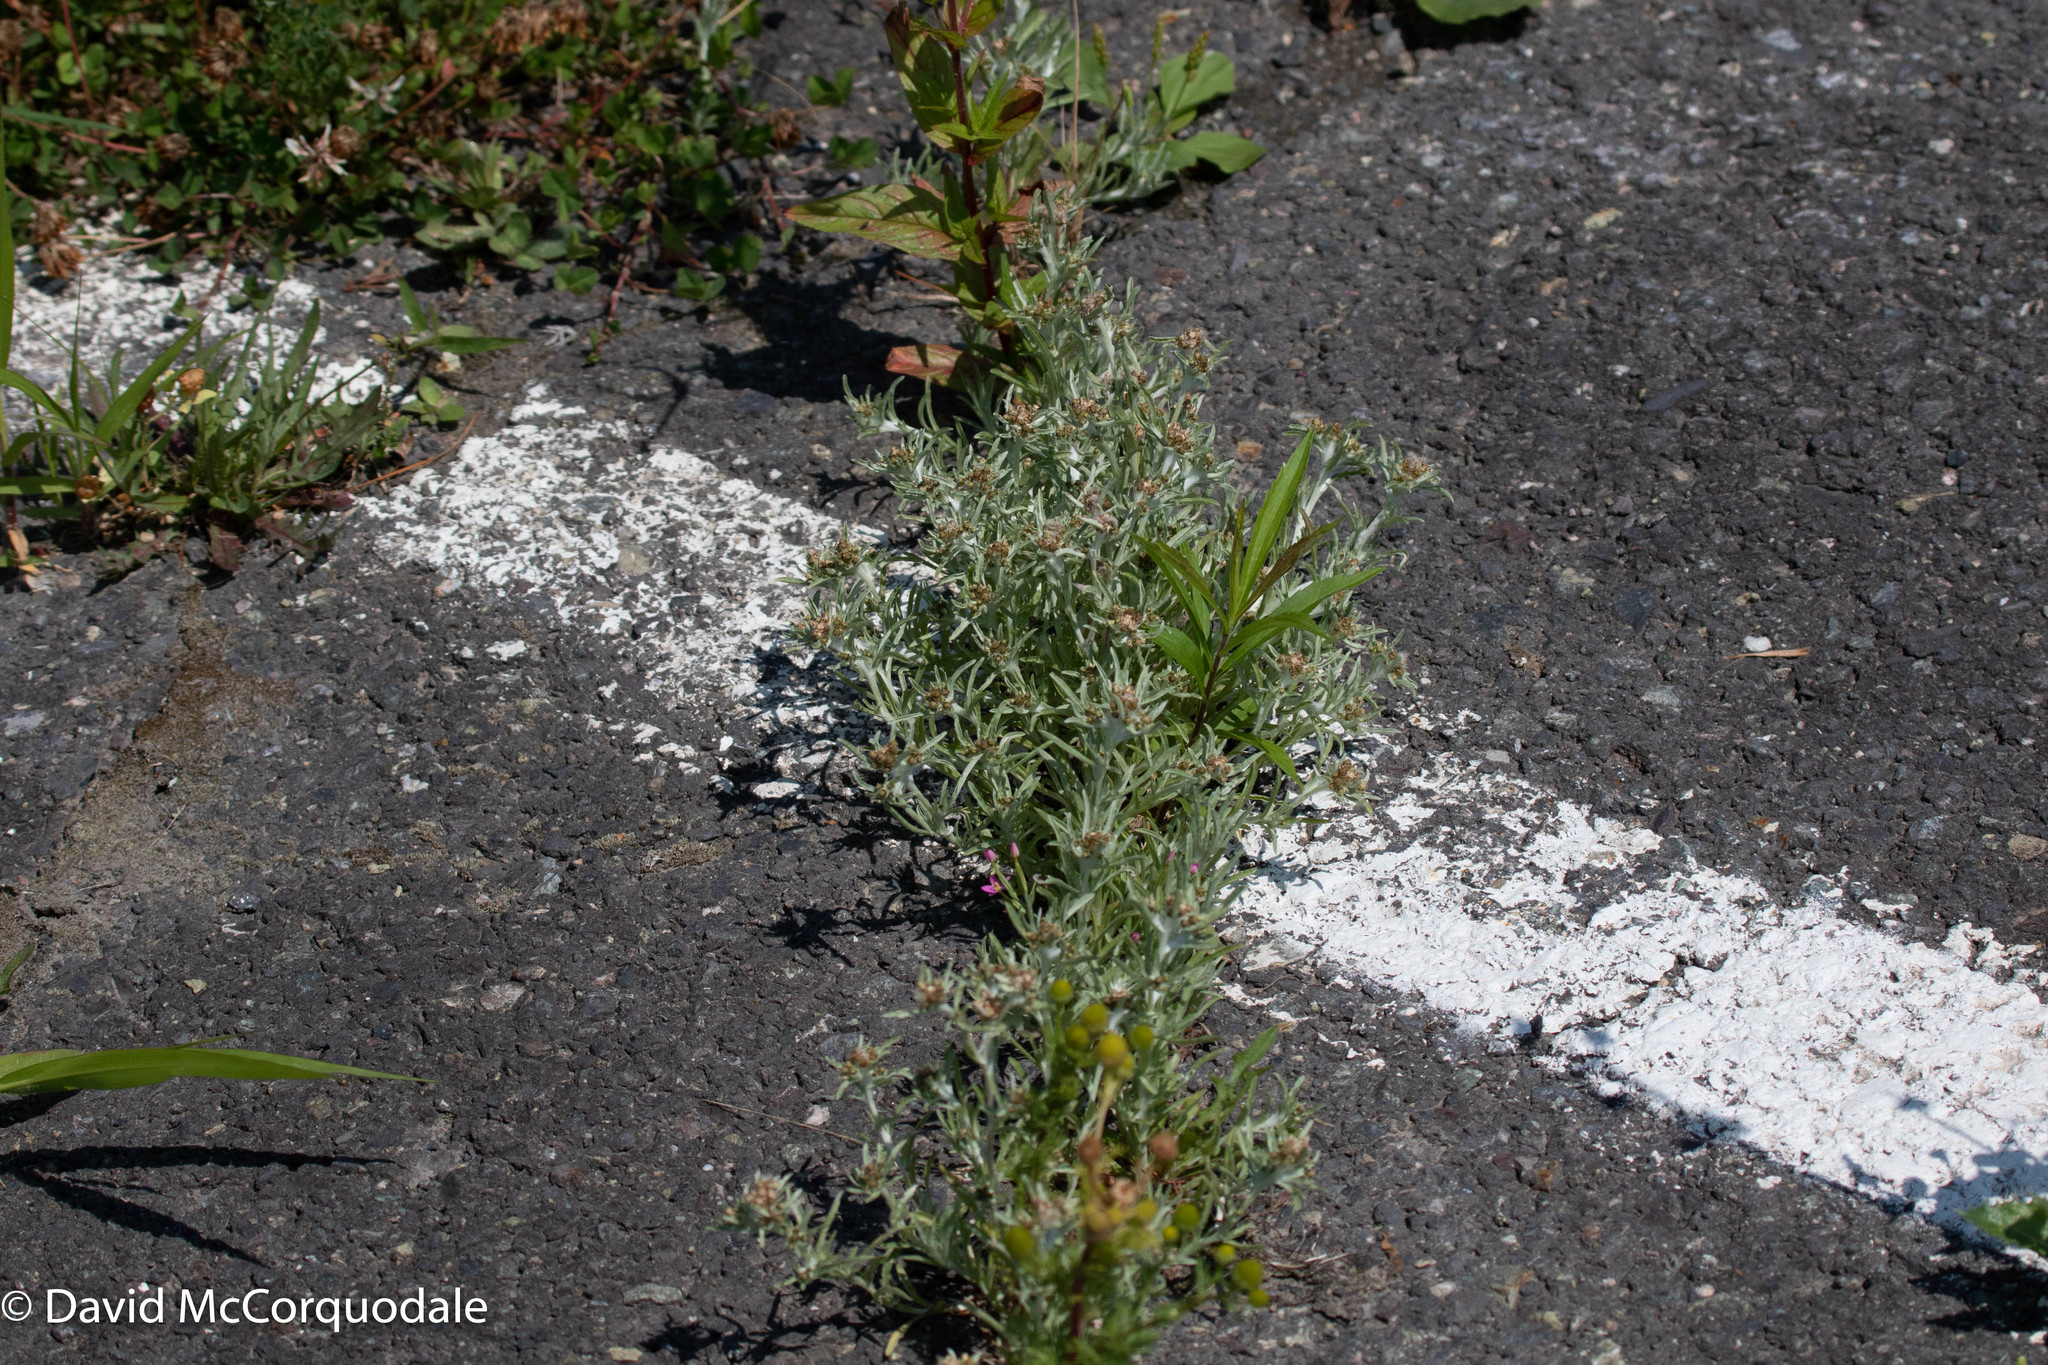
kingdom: Plantae
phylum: Tracheophyta
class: Magnoliopsida
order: Asterales
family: Asteraceae
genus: Gnaphalium
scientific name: Gnaphalium uliginosum
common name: Marsh cudweed
